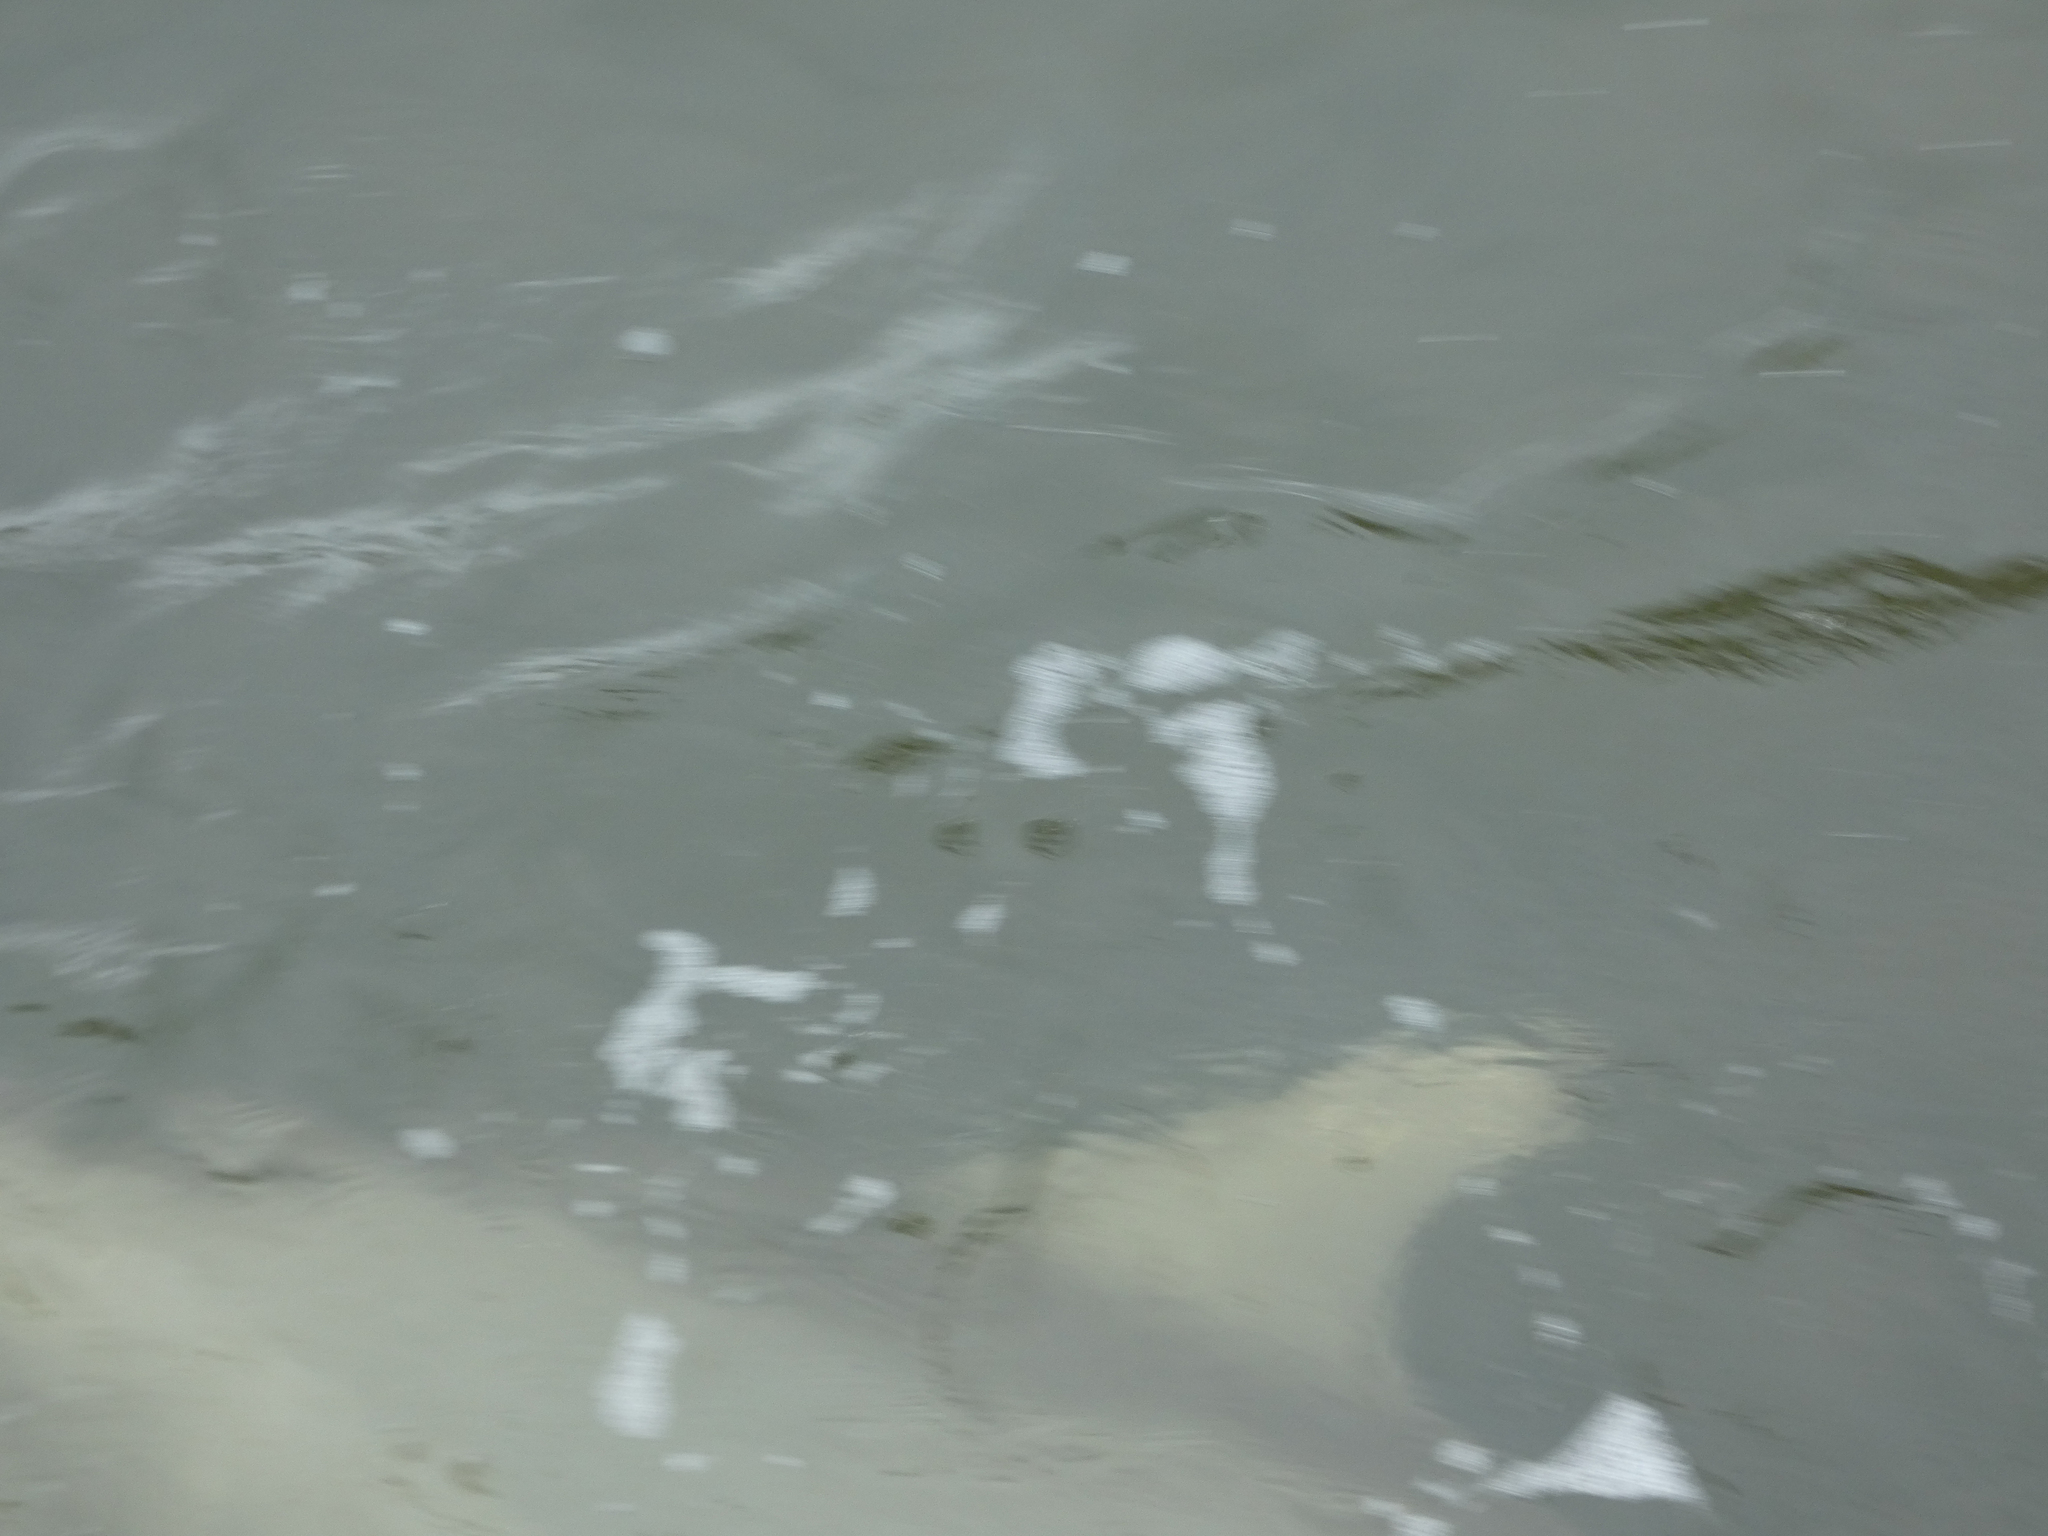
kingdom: Animalia
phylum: Chordata
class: Mammalia
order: Cetacea
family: Delphinidae
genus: Tursiops
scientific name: Tursiops truncatus
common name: Bottlenose dolphin
